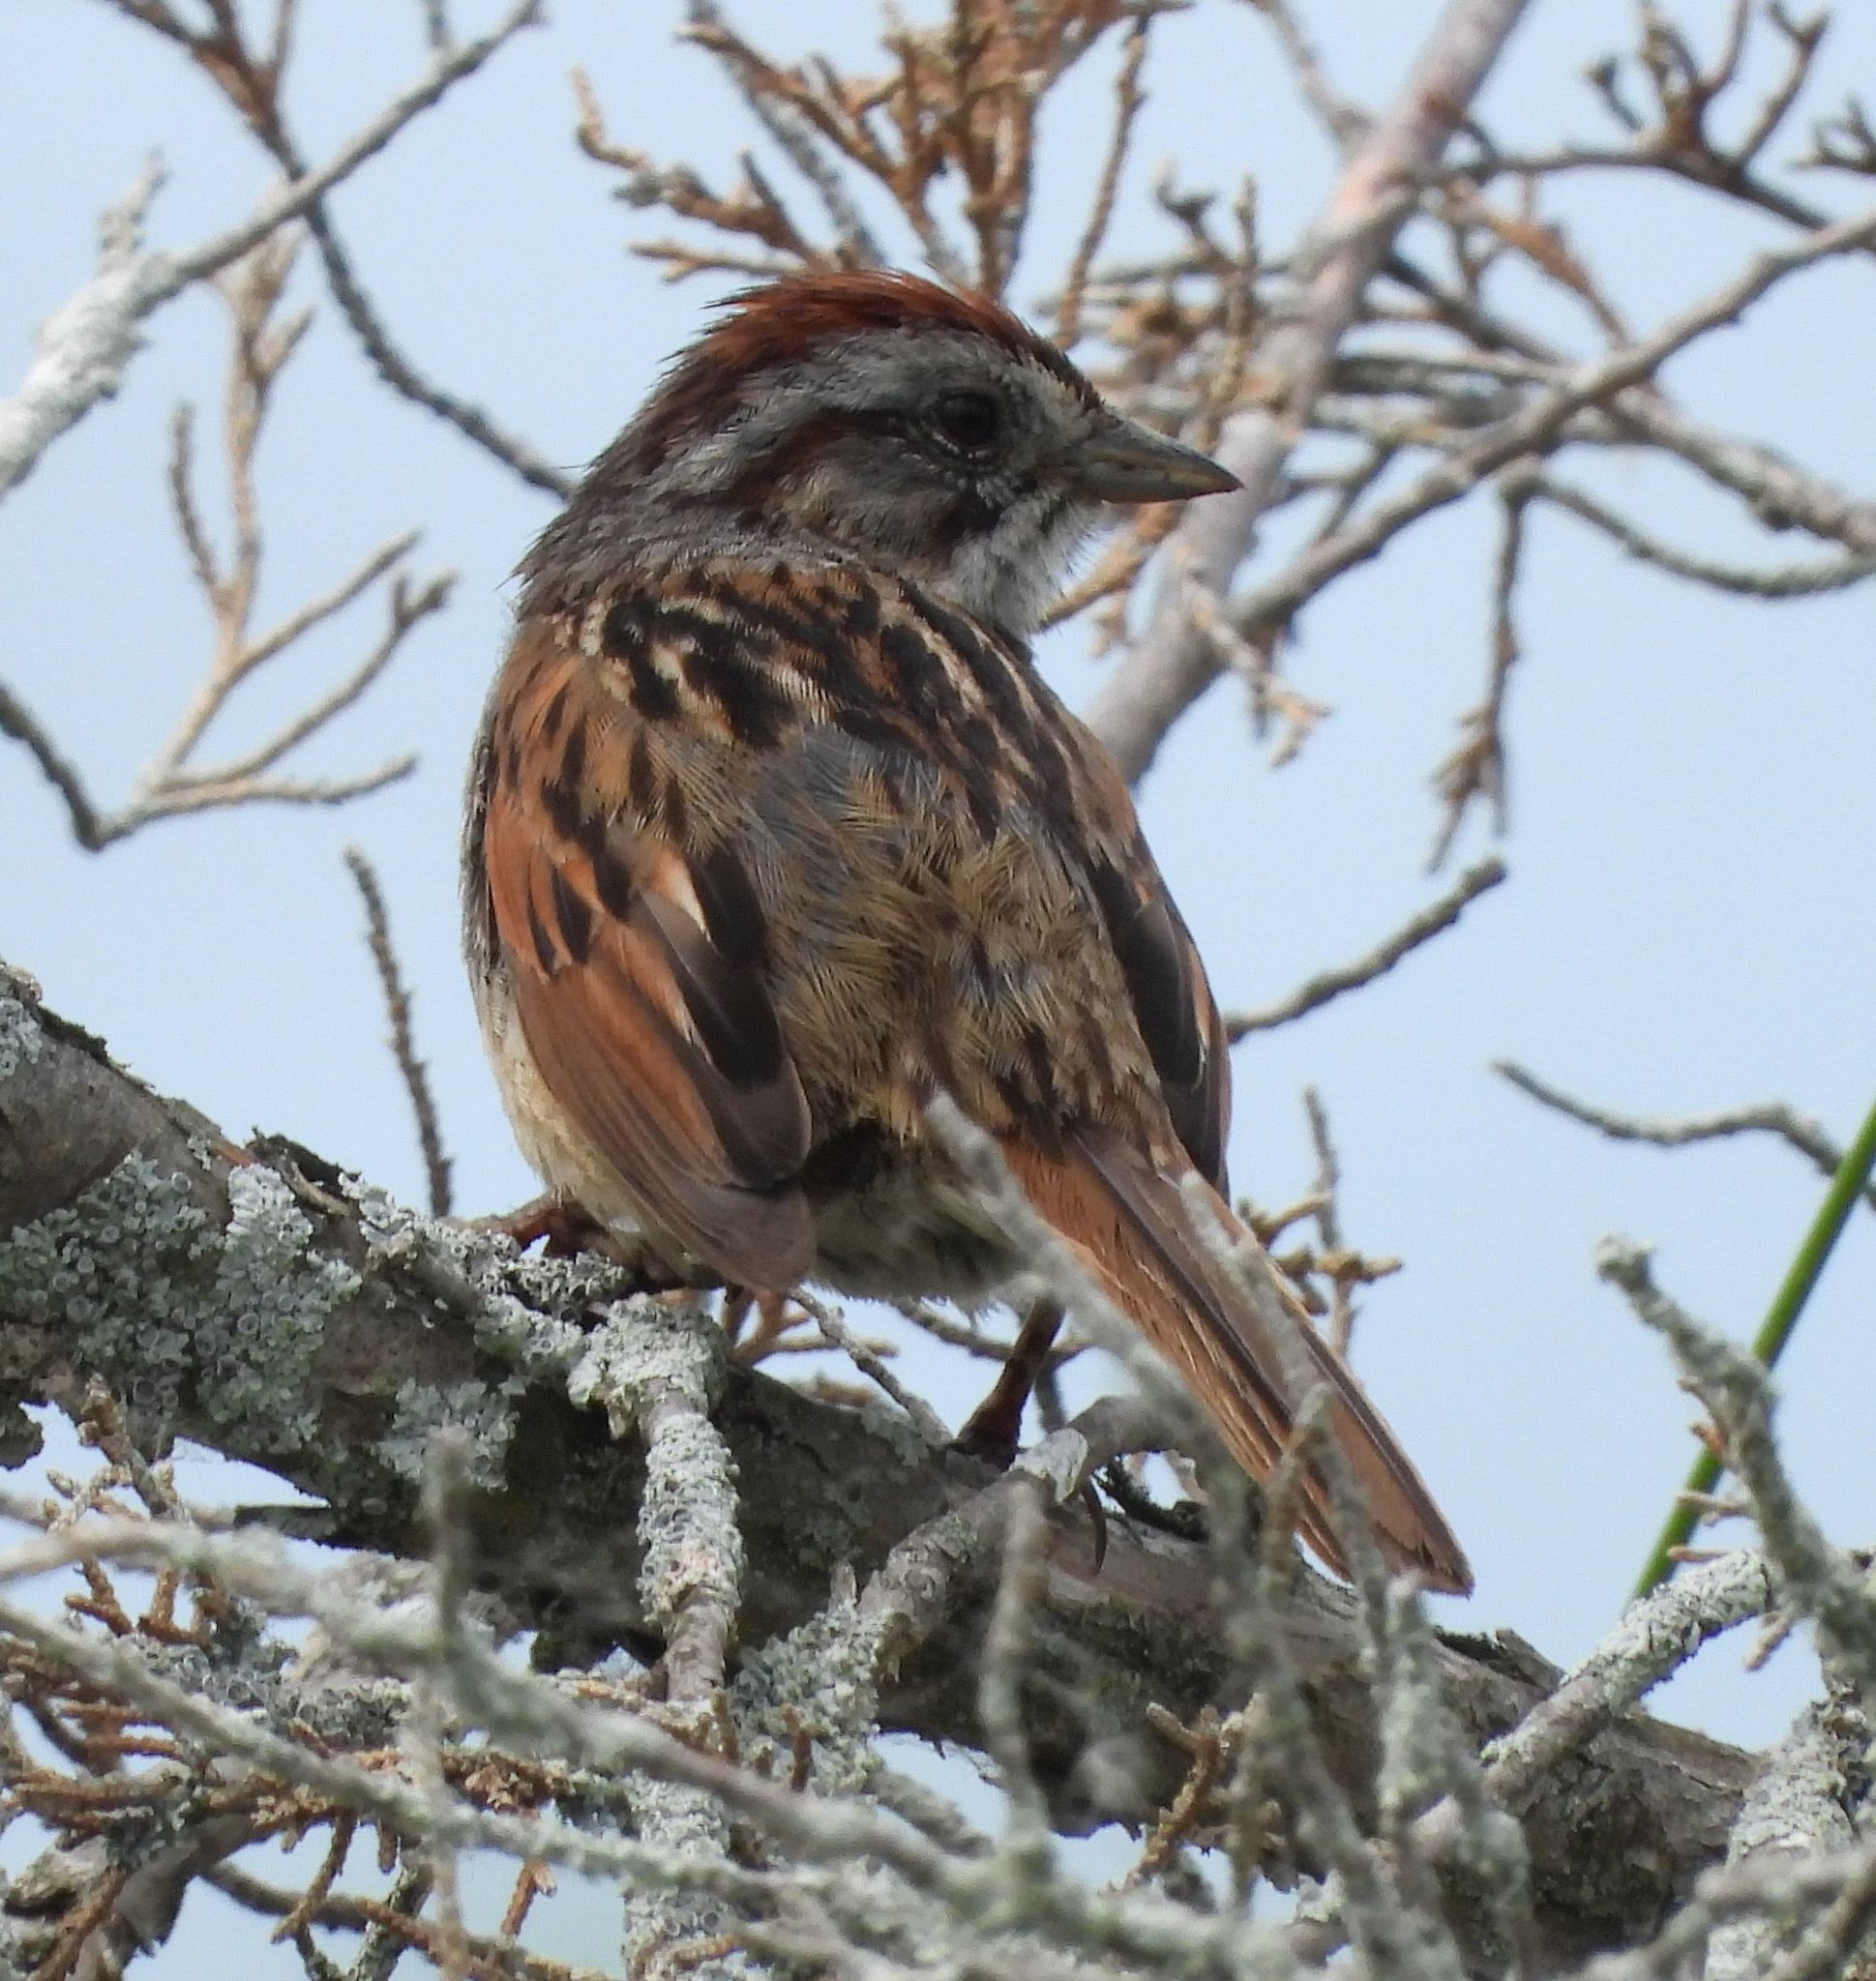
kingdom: Animalia
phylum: Chordata
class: Aves
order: Passeriformes
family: Passerellidae
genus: Melospiza
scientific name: Melospiza georgiana
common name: Swamp sparrow
